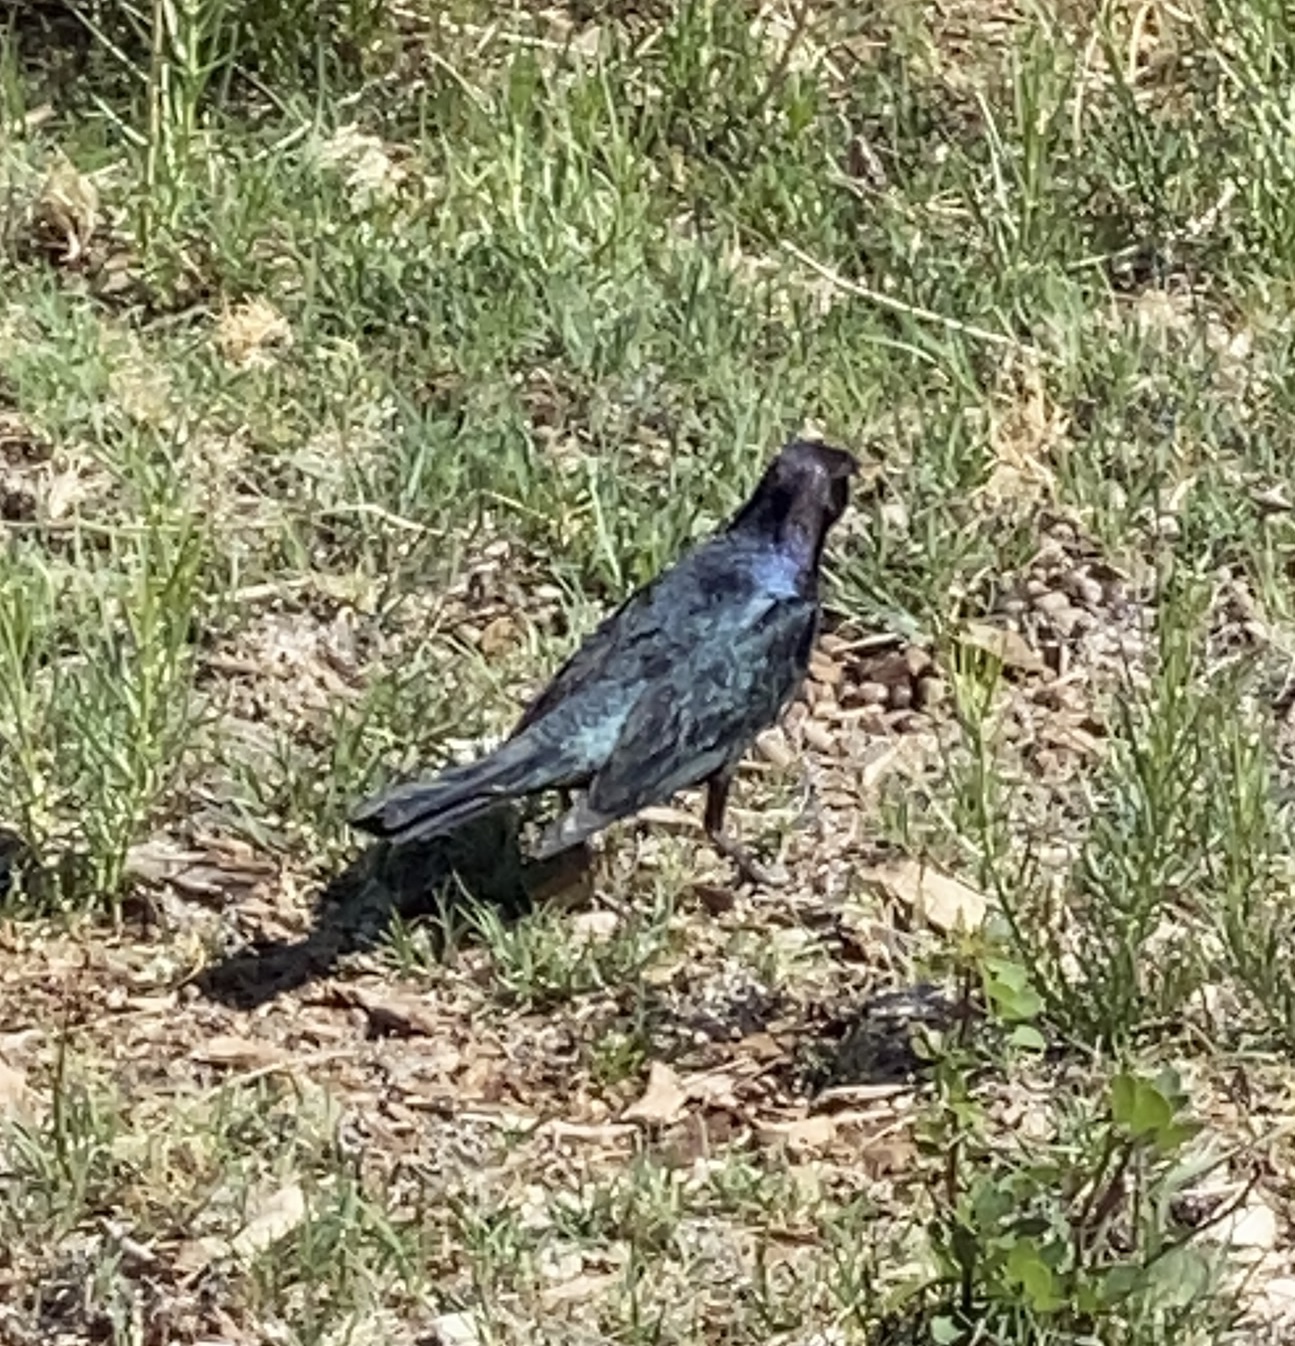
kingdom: Animalia
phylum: Chordata
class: Aves
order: Passeriformes
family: Icteridae
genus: Euphagus
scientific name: Euphagus cyanocephalus
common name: Brewer's blackbird
